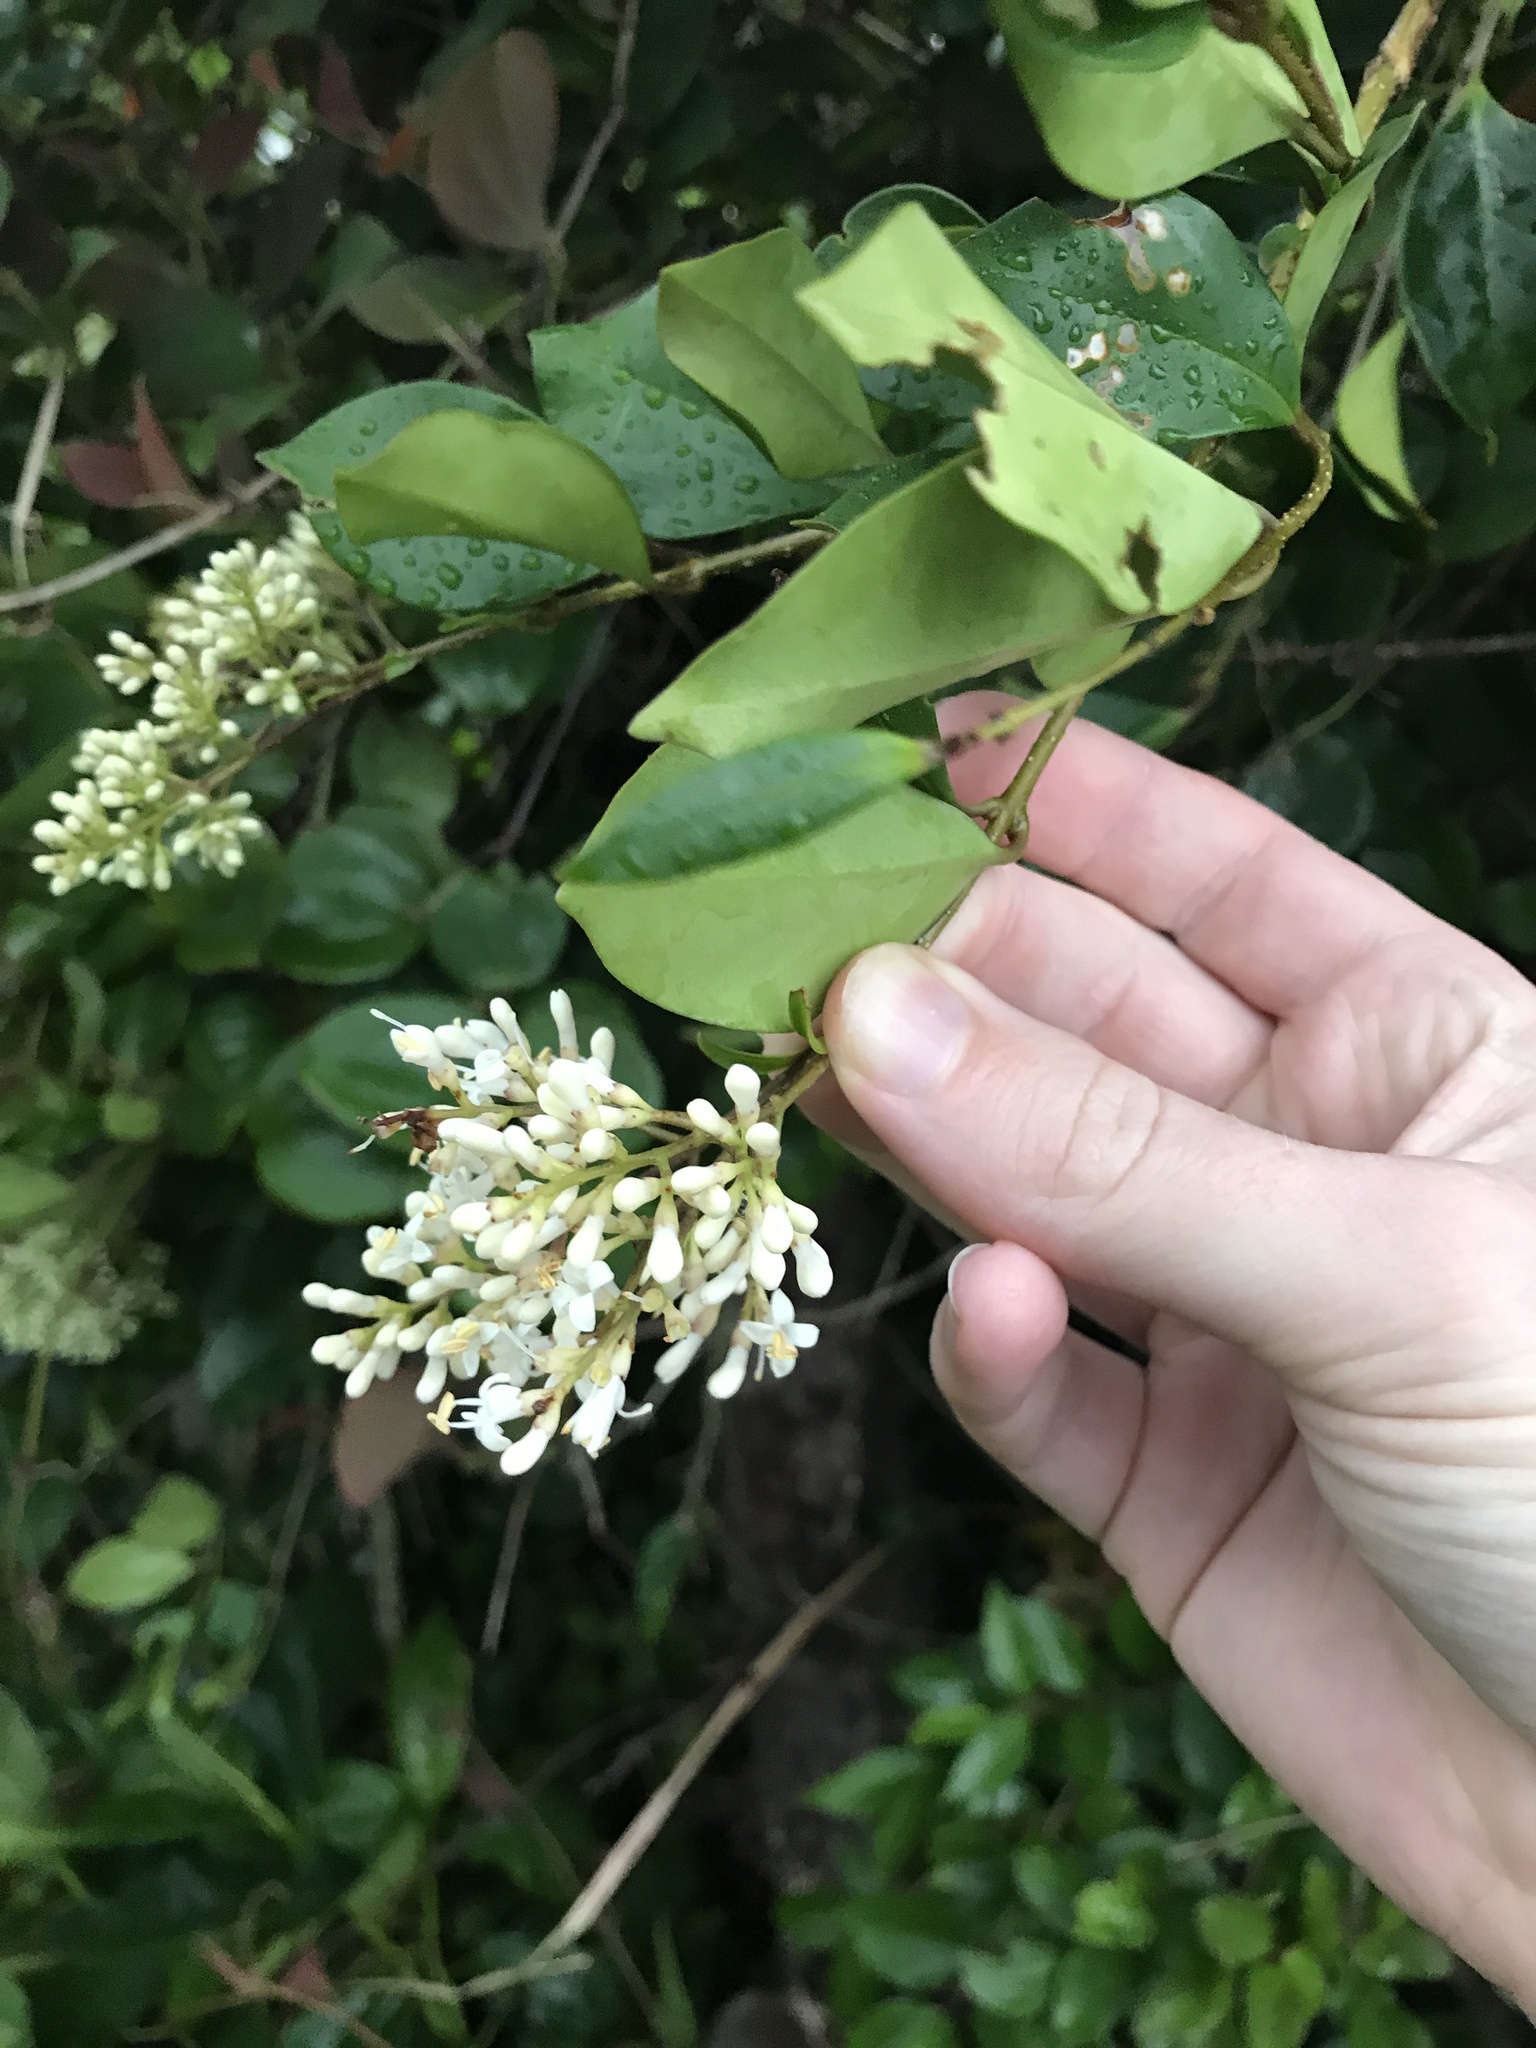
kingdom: Plantae
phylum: Tracheophyta
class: Magnoliopsida
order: Lamiales
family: Oleaceae
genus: Ligustrum
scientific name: Ligustrum japonicum
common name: Japanese privet
